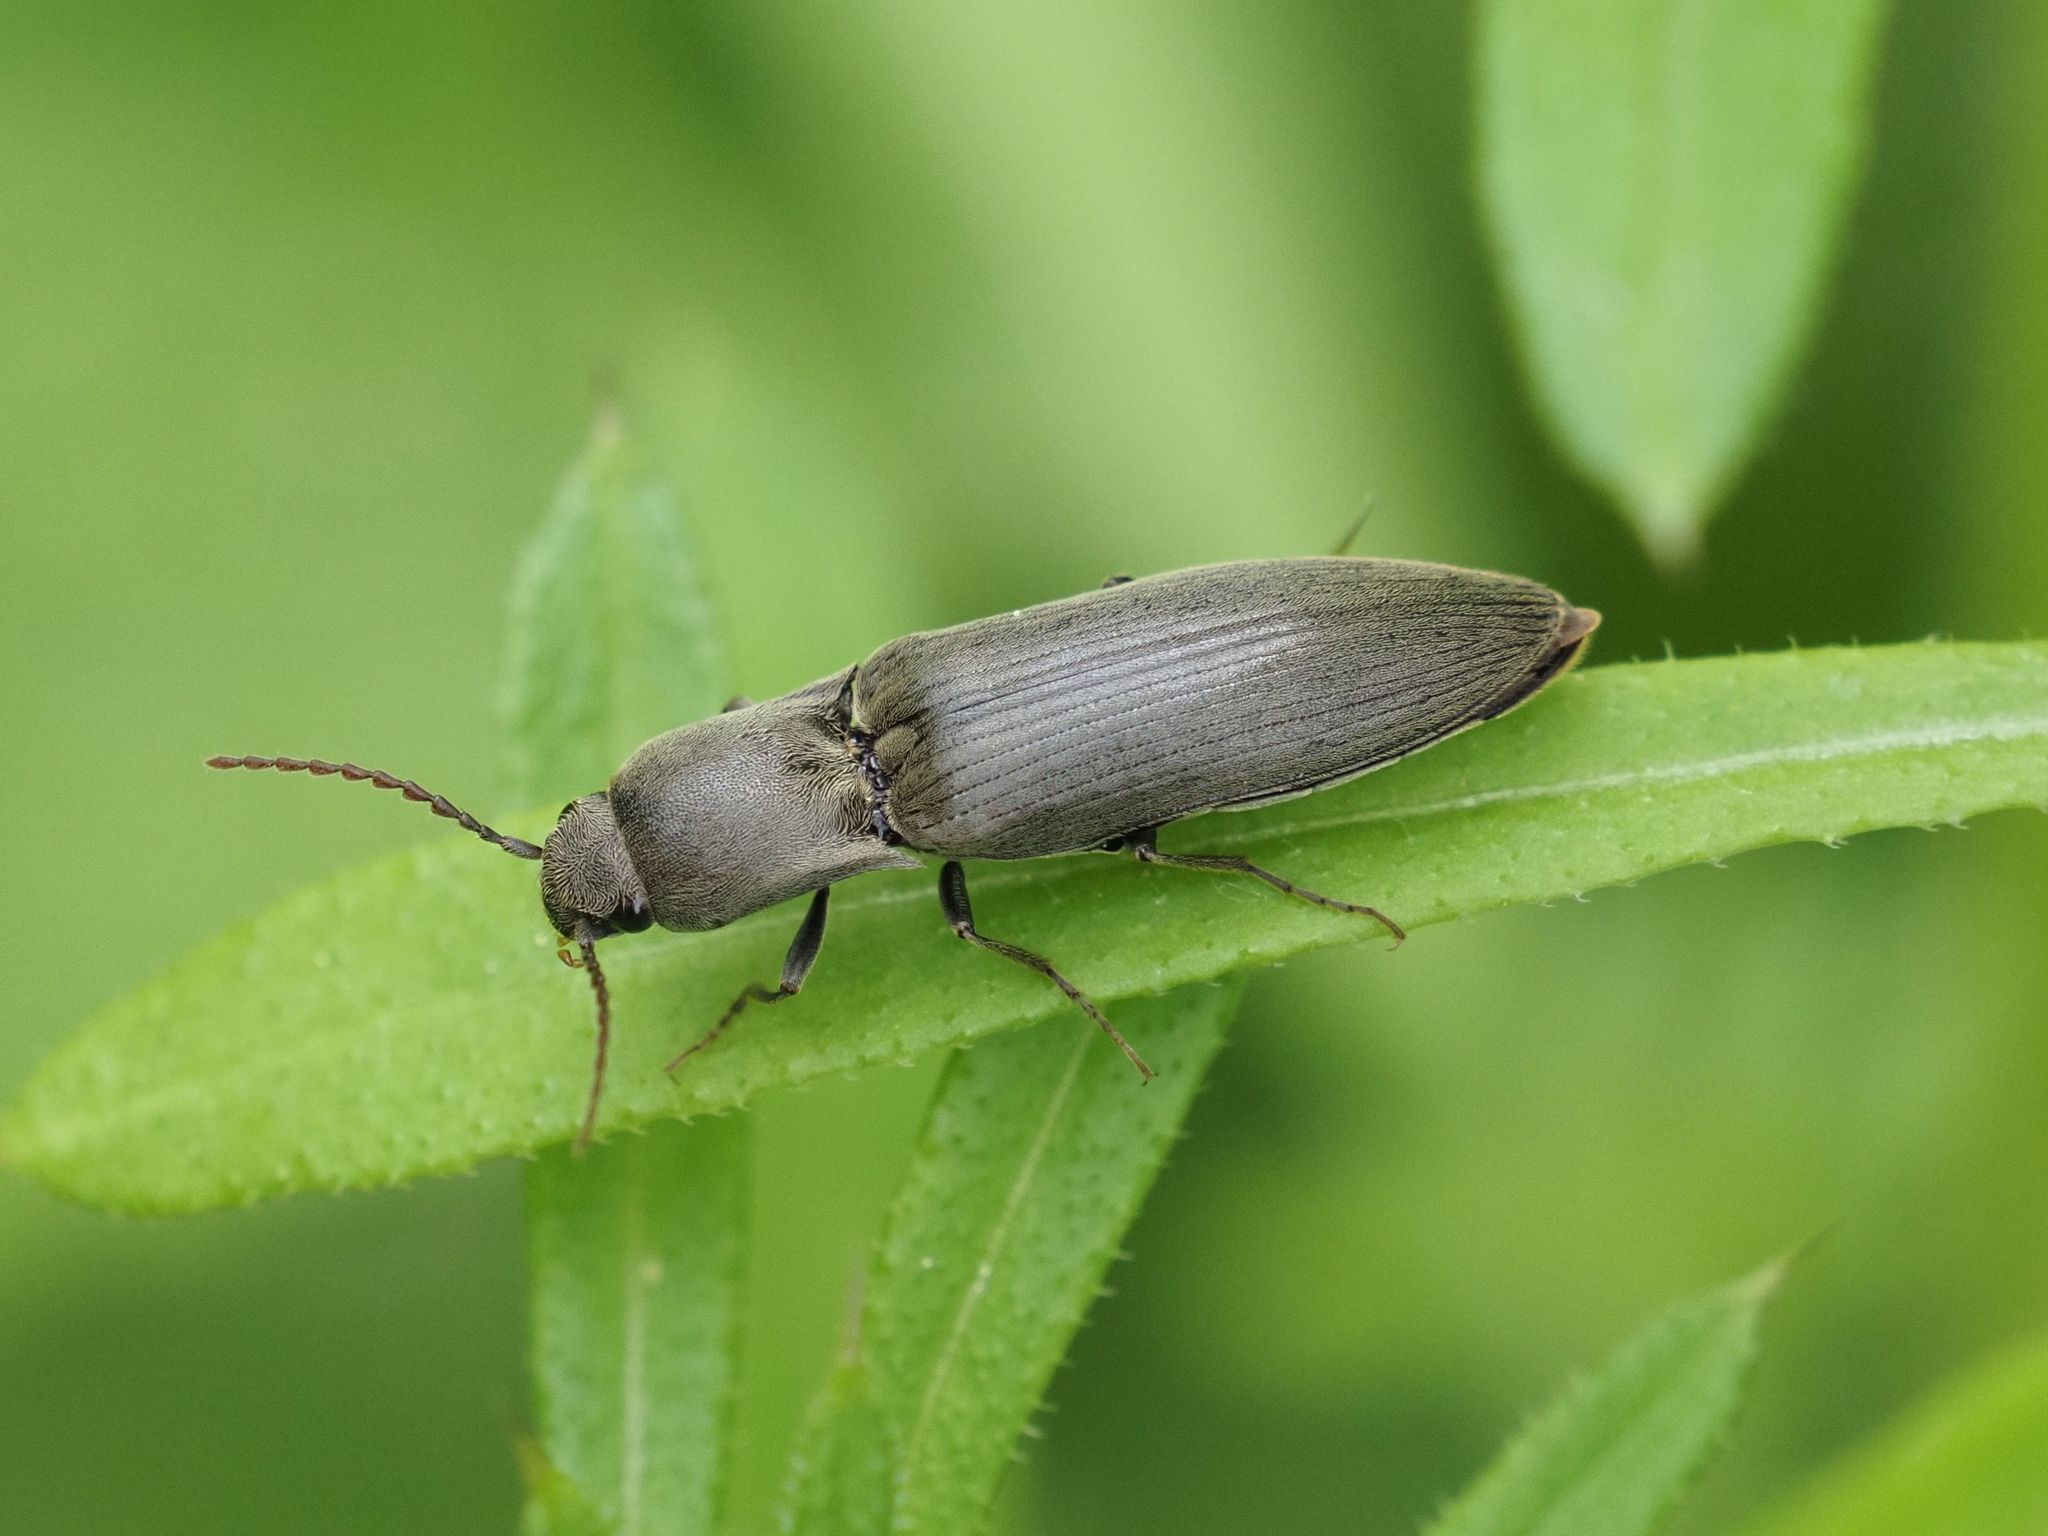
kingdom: Animalia
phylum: Arthropoda
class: Insecta
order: Coleoptera
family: Elateridae
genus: Agriotes
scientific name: Agriotes pilosellus
